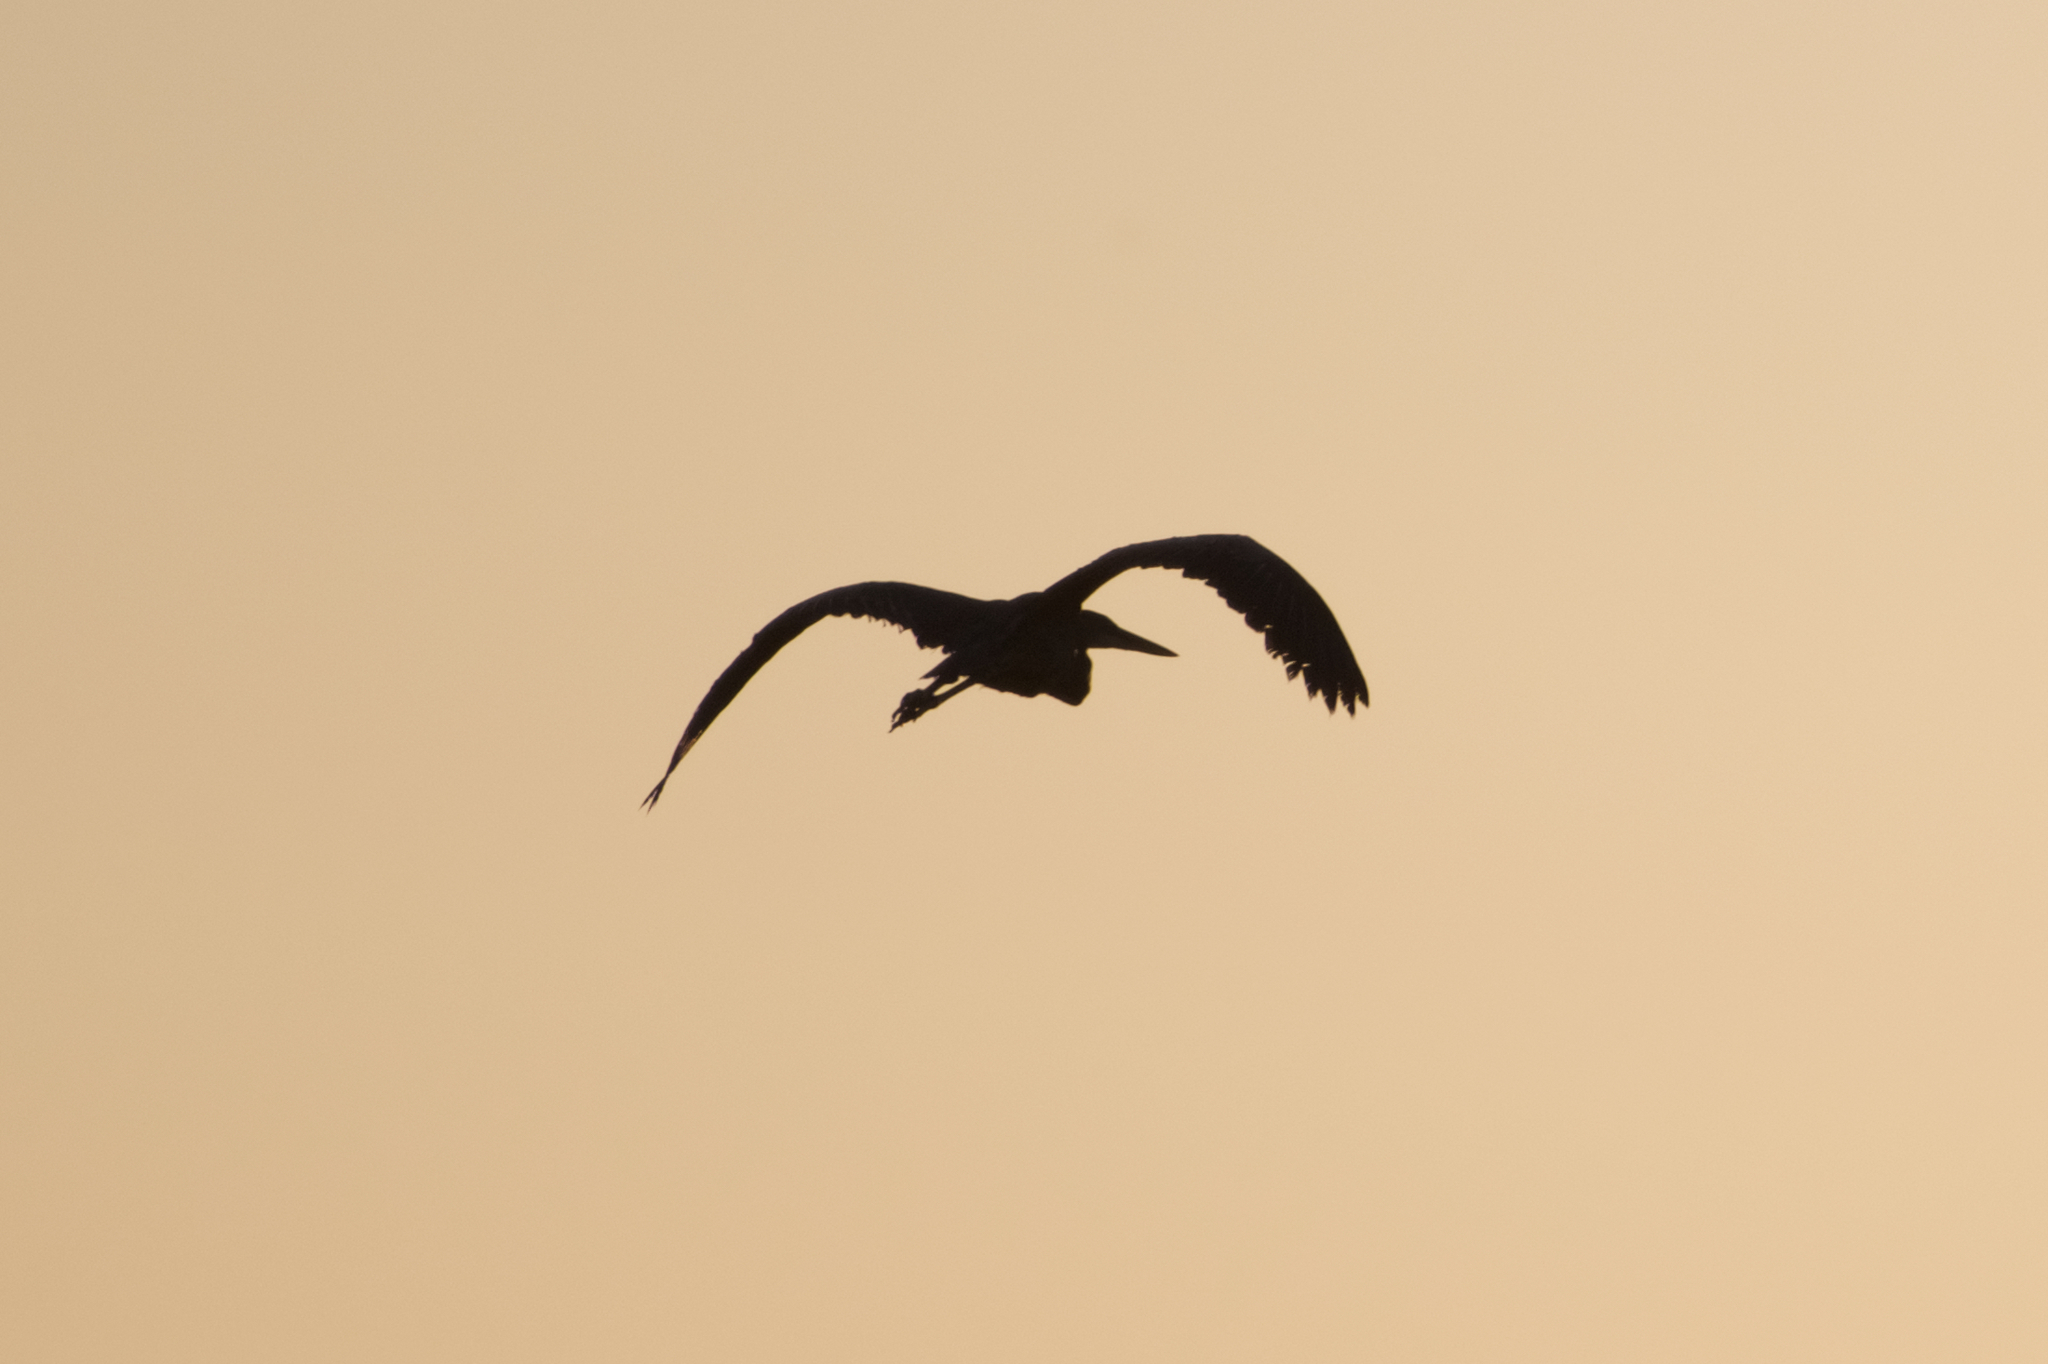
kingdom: Animalia
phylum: Chordata
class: Aves
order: Pelecaniformes
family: Ardeidae
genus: Ardea
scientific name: Ardea herodias
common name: Great blue heron
